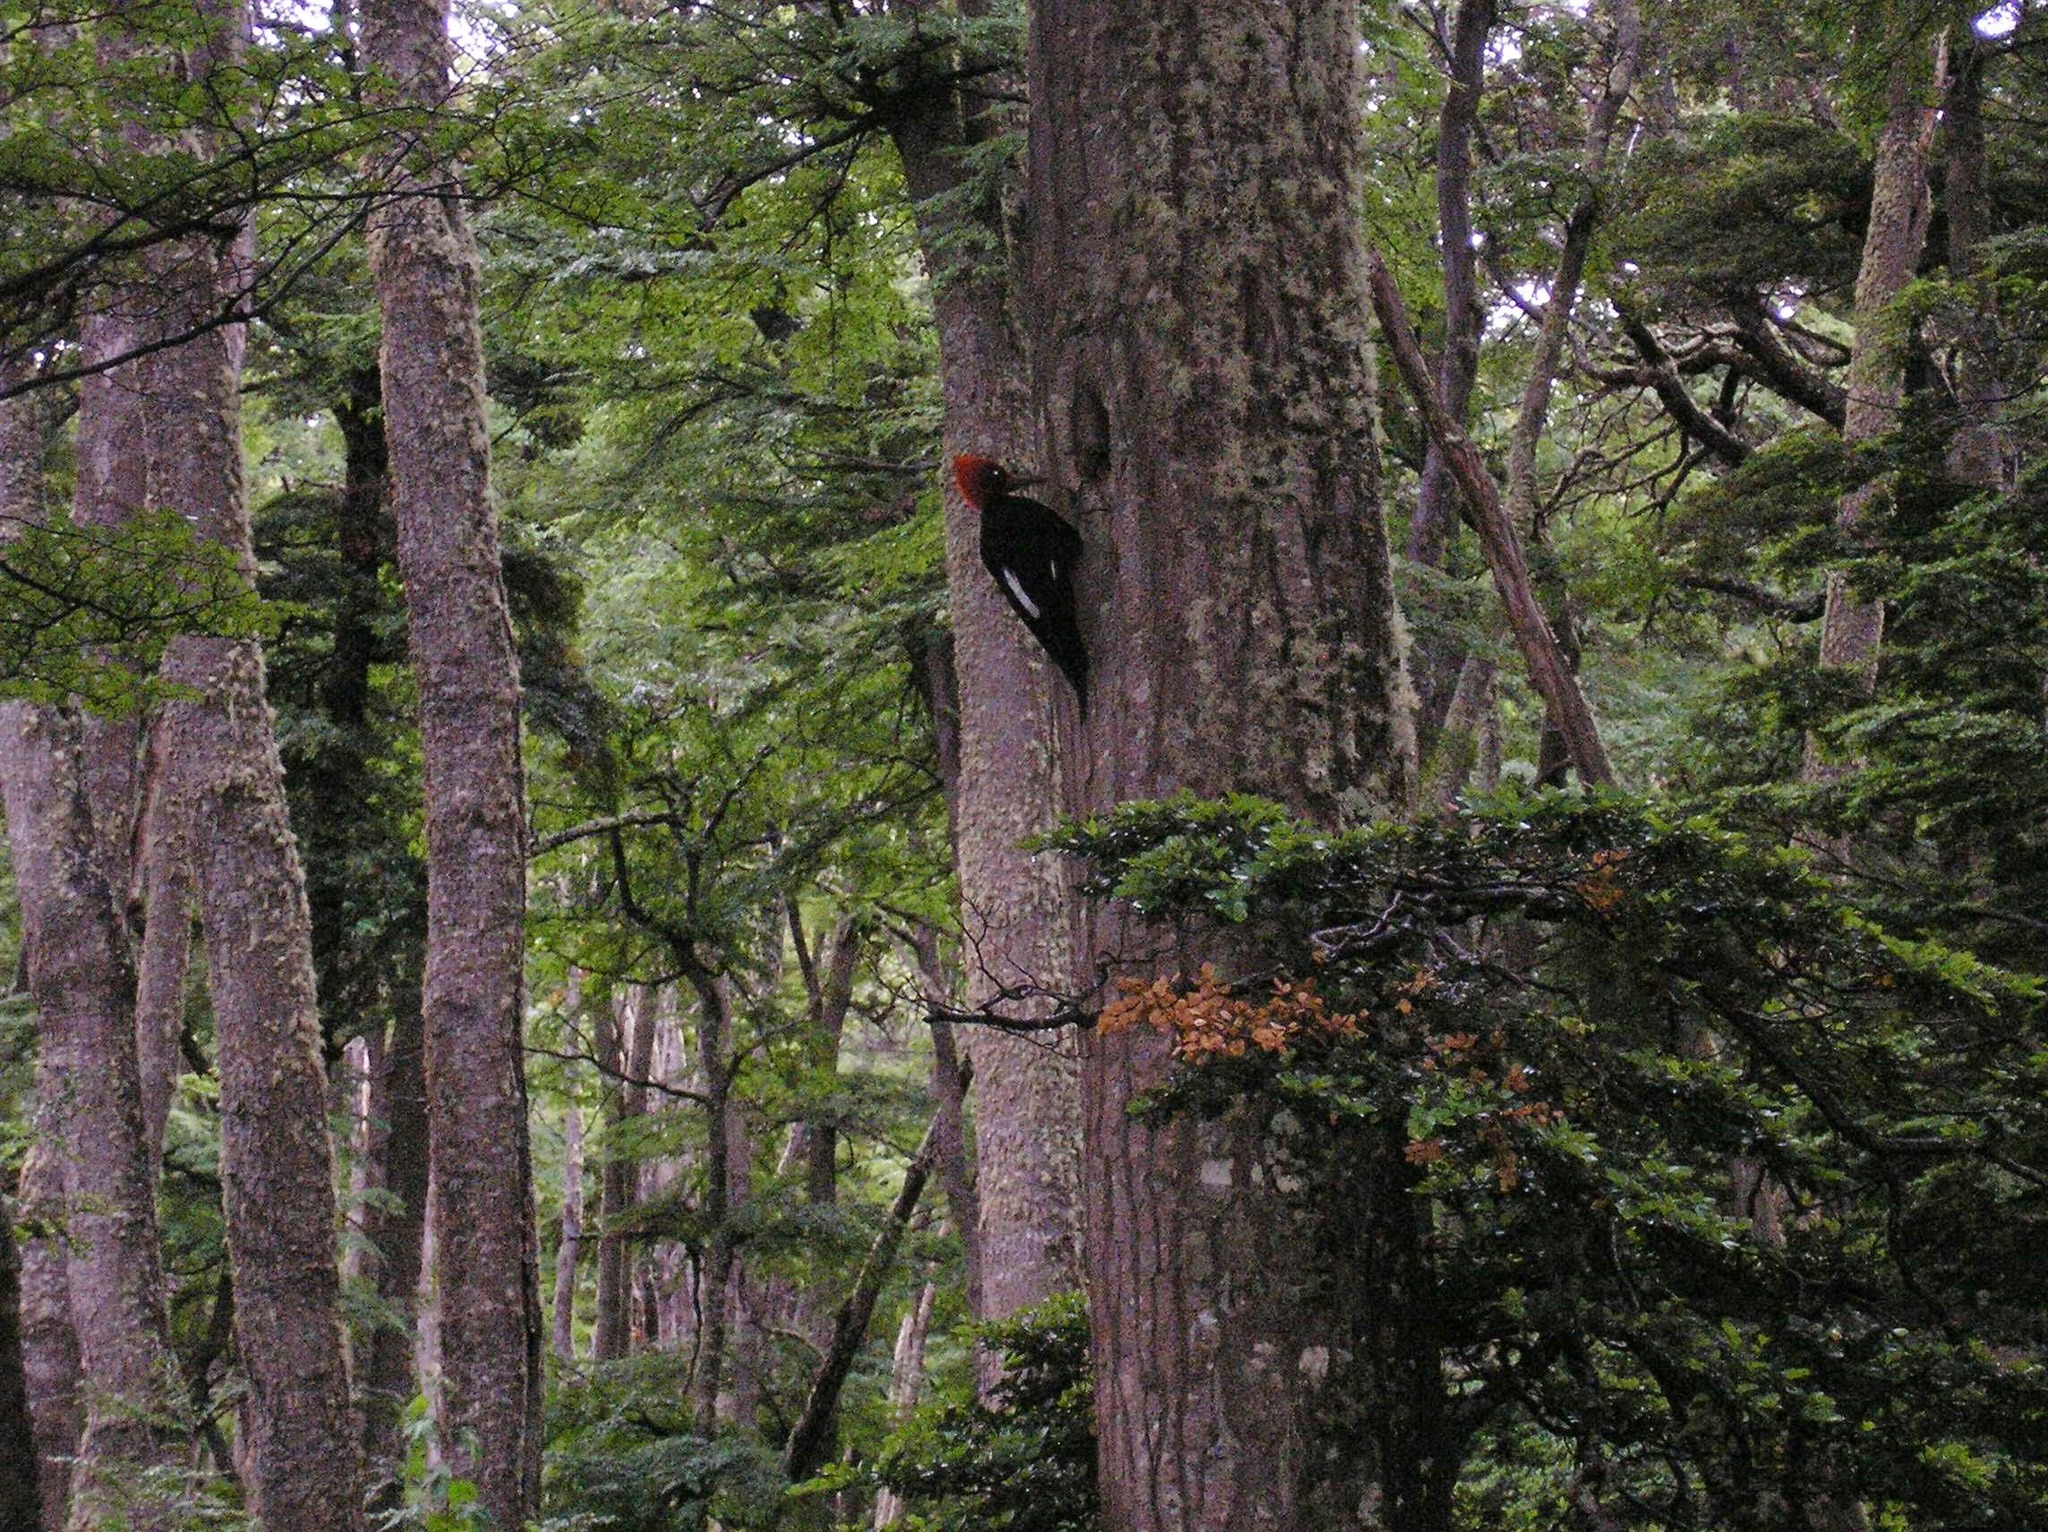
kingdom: Animalia
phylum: Chordata
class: Aves
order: Piciformes
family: Picidae
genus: Campephilus
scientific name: Campephilus magellanicus
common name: Magellanic woodpecker
